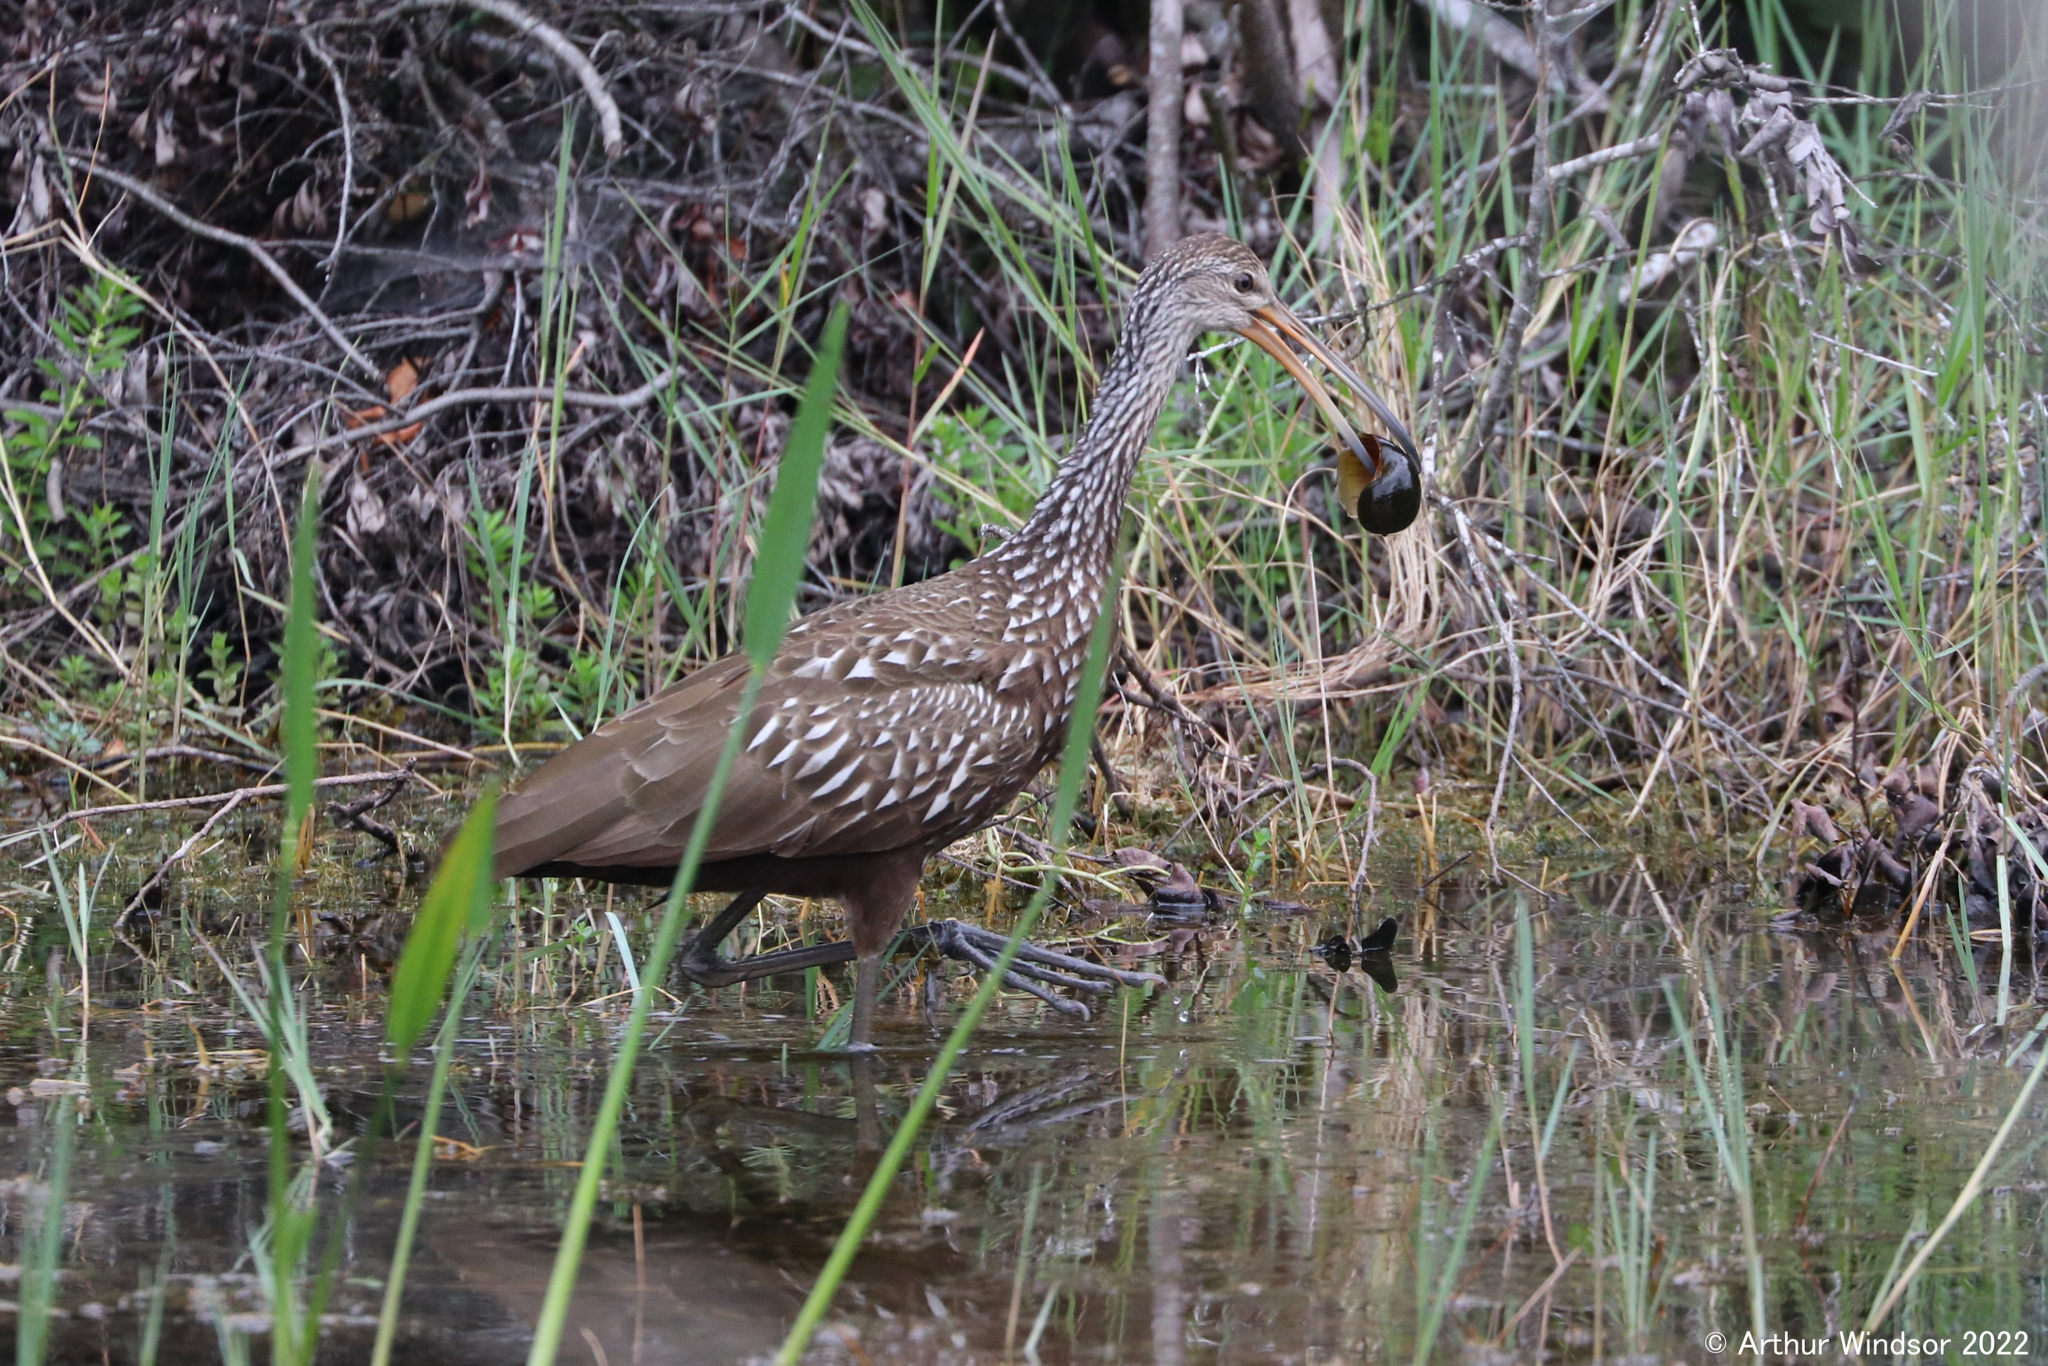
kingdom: Animalia
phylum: Chordata
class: Aves
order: Gruiformes
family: Aramidae
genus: Aramus
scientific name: Aramus guarauna
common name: Limpkin
